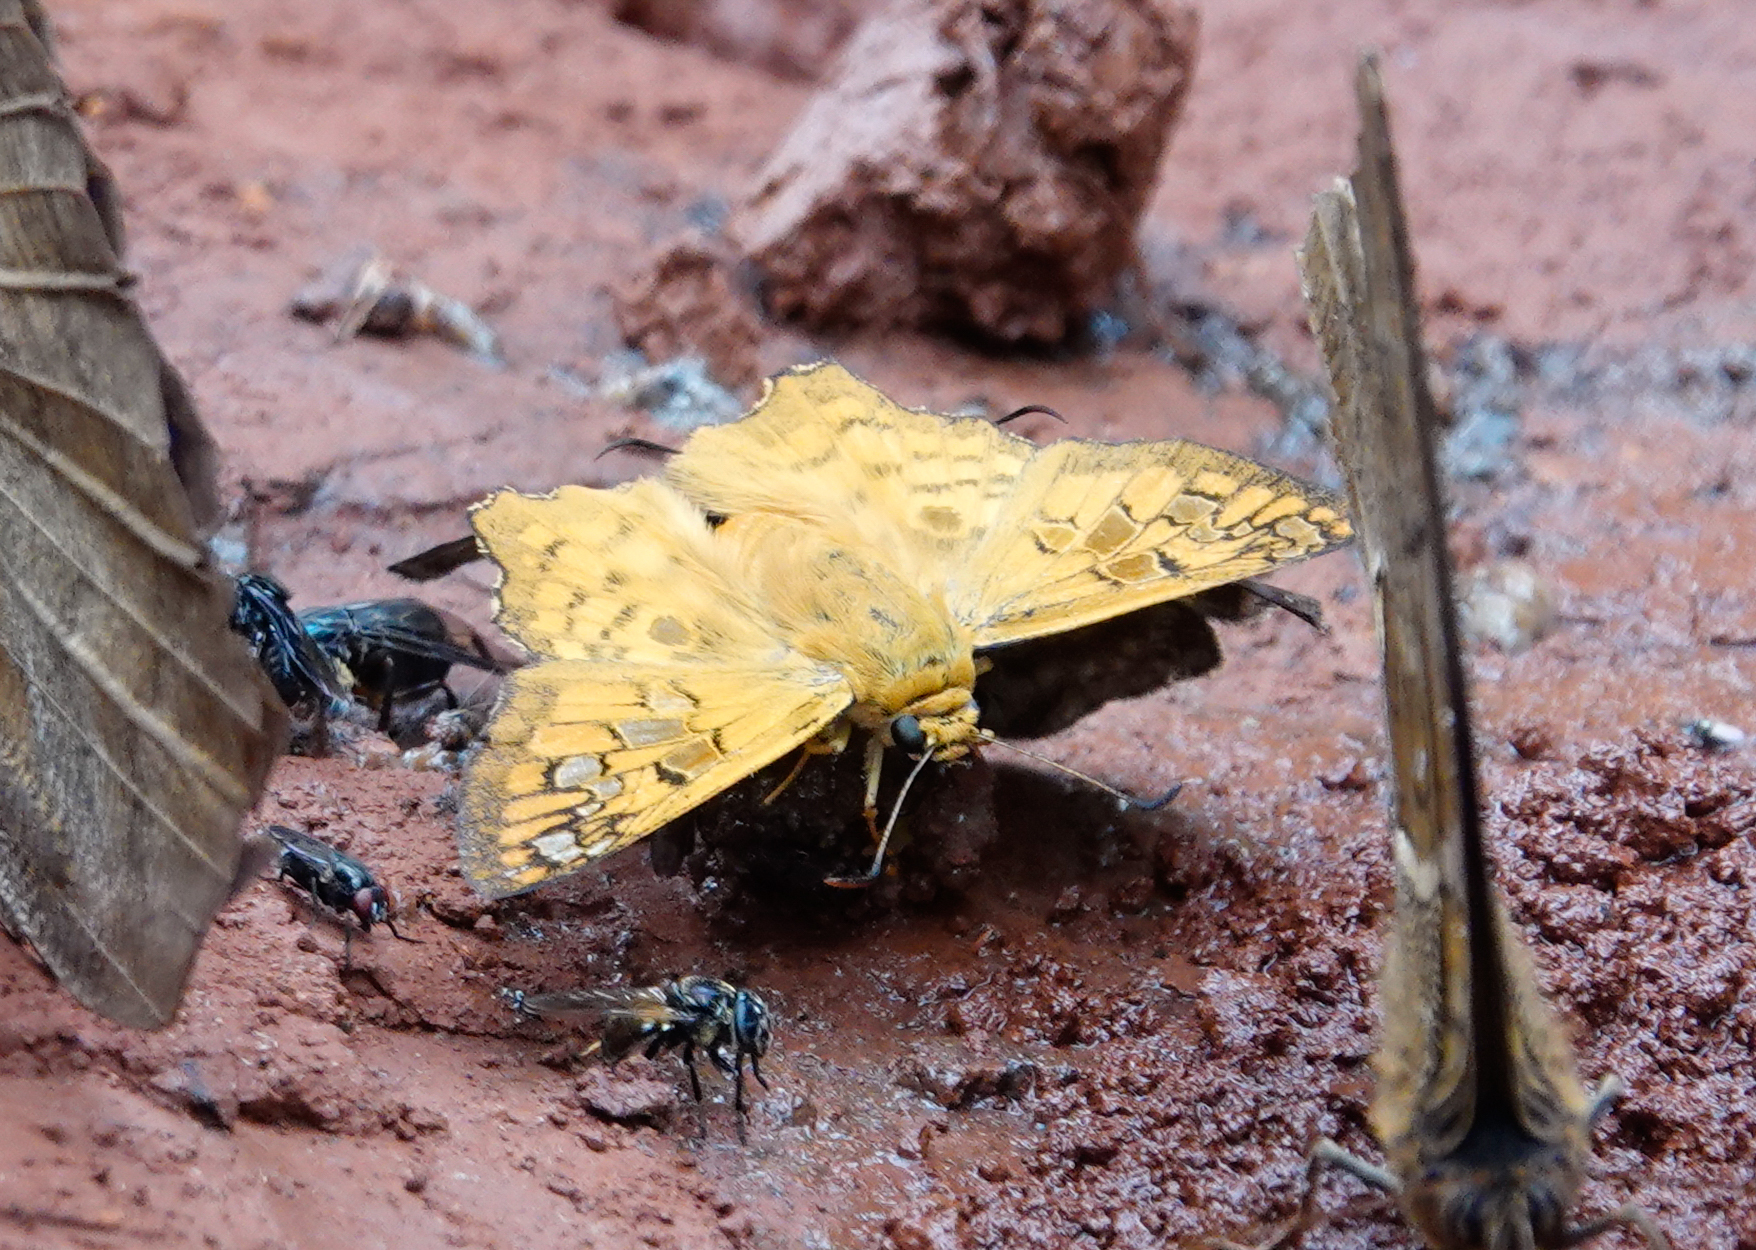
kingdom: Animalia
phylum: Arthropoda
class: Insecta
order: Lepidoptera
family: Hesperiidae
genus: Myscelus
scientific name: Myscelus amystis
